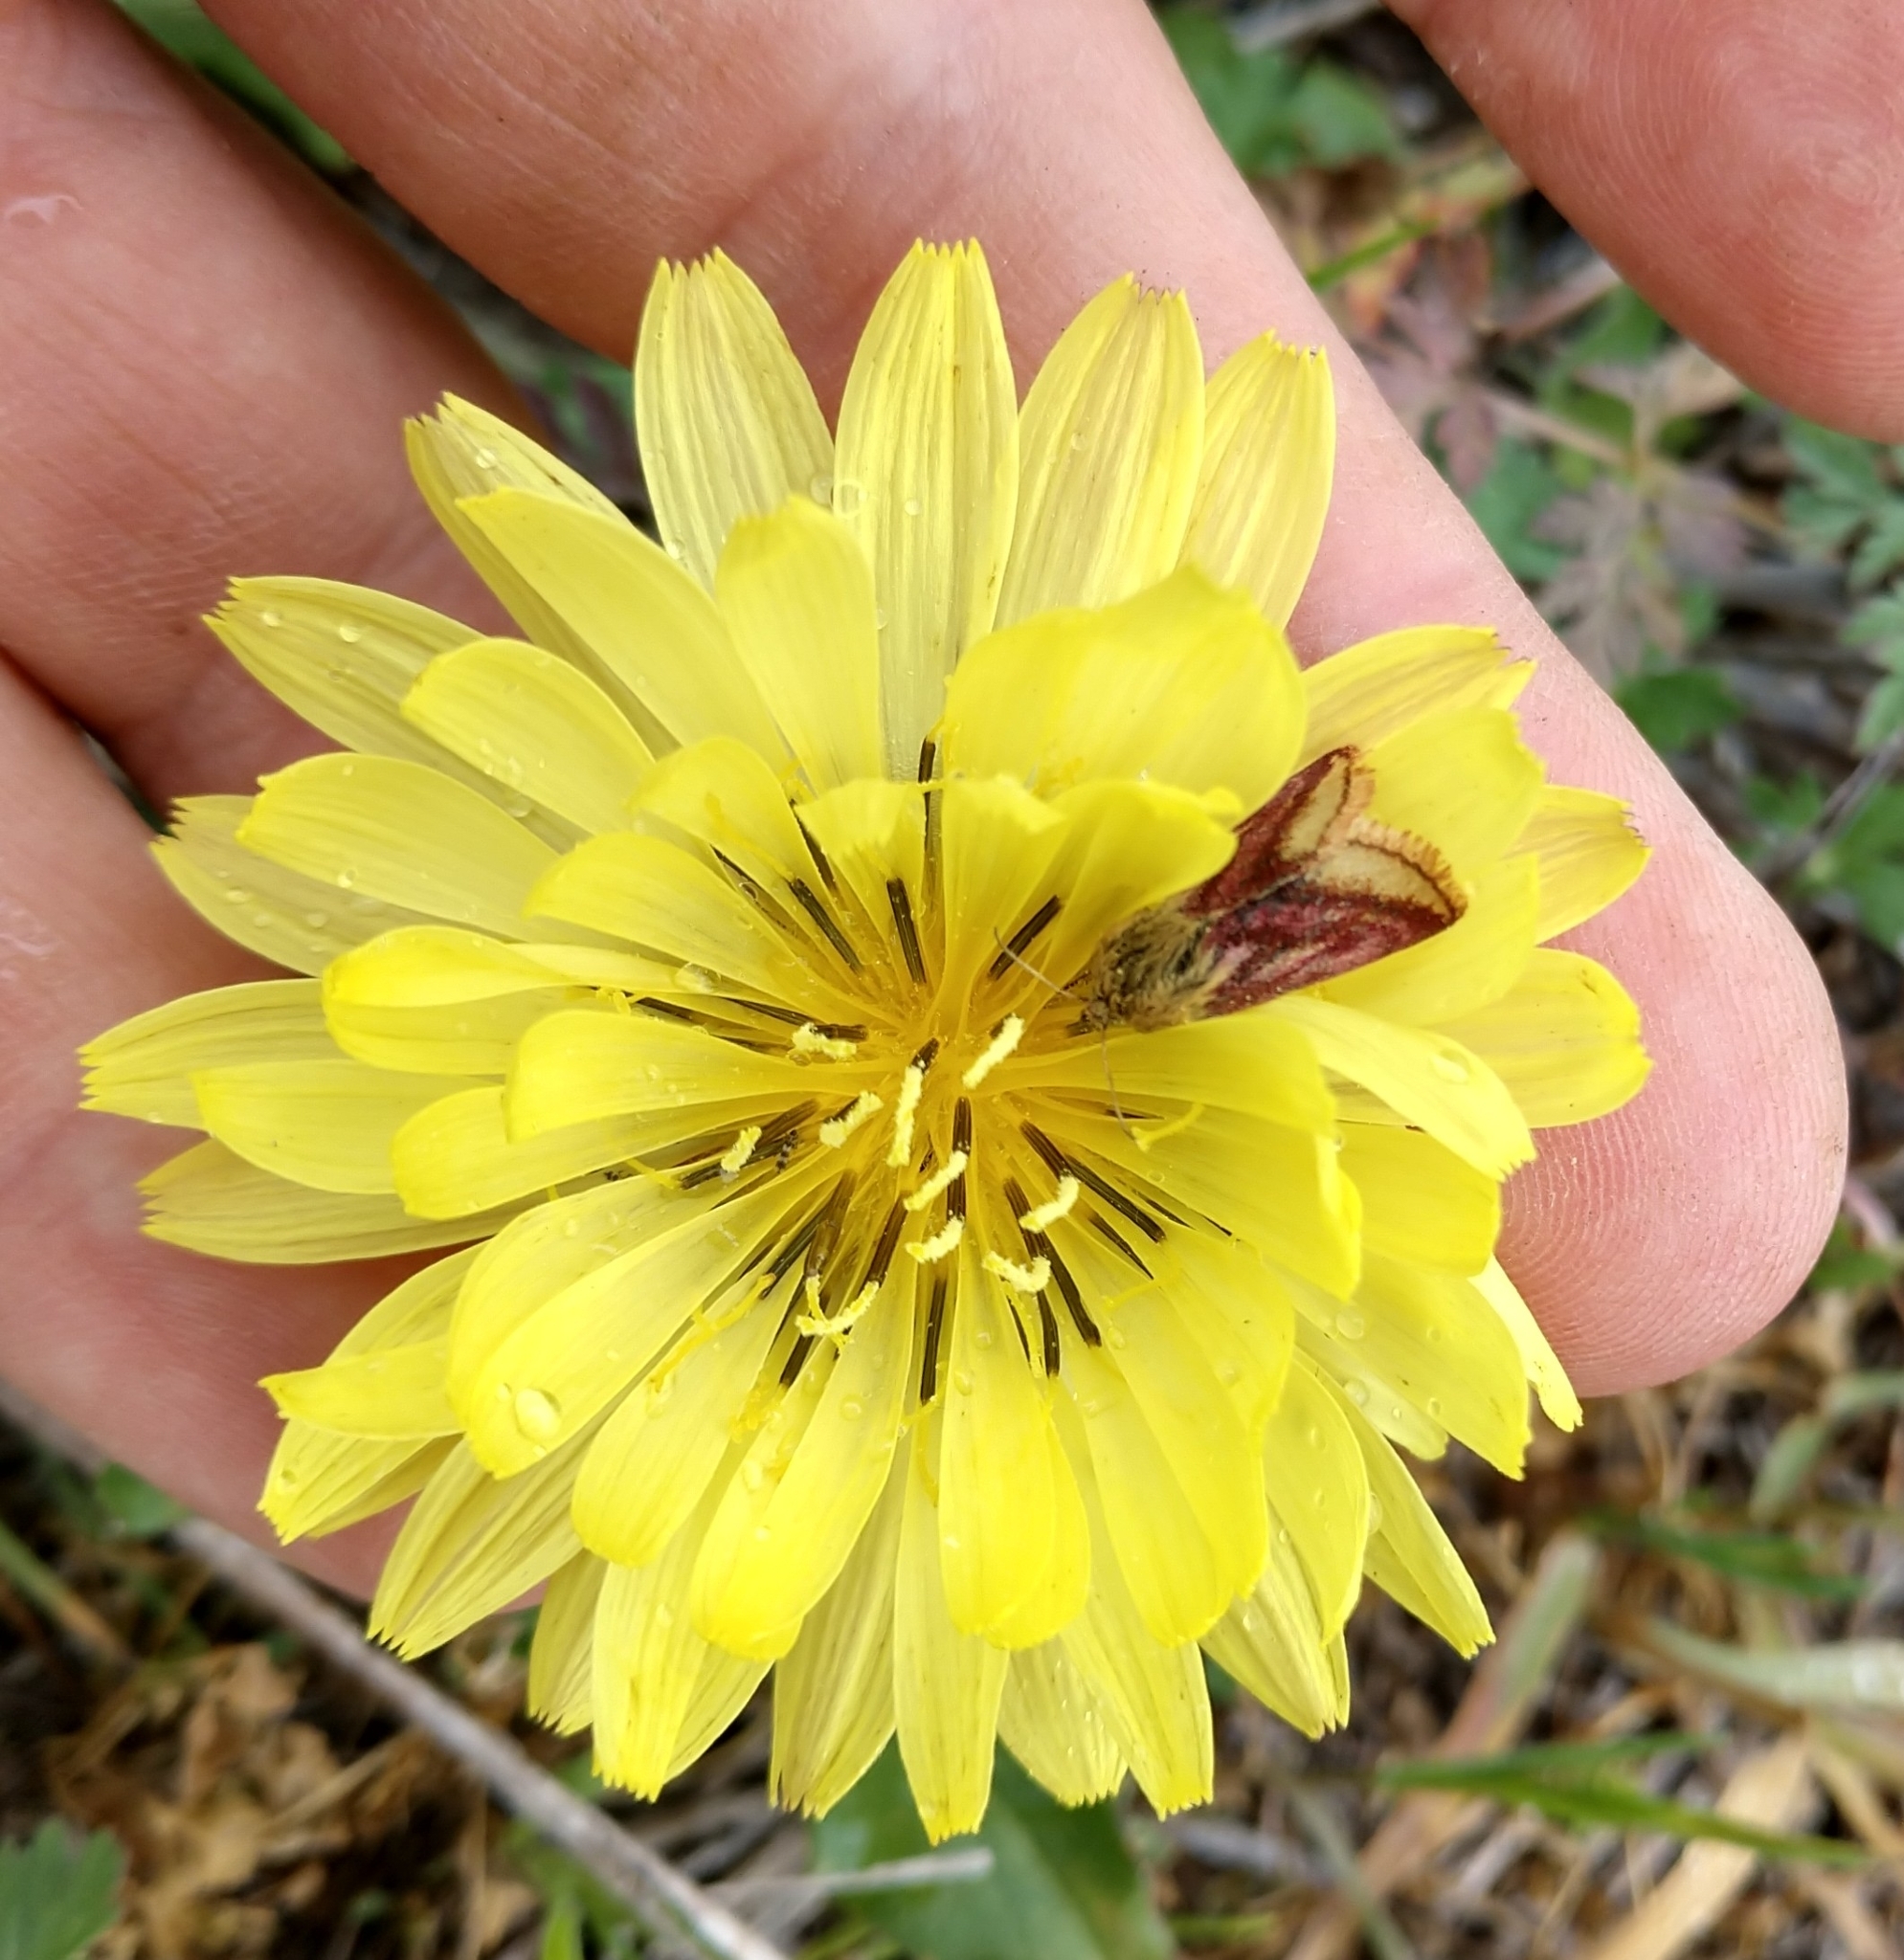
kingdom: Animalia
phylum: Arthropoda
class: Insecta
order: Lepidoptera
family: Noctuidae
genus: Schinia
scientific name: Schinia mitis
